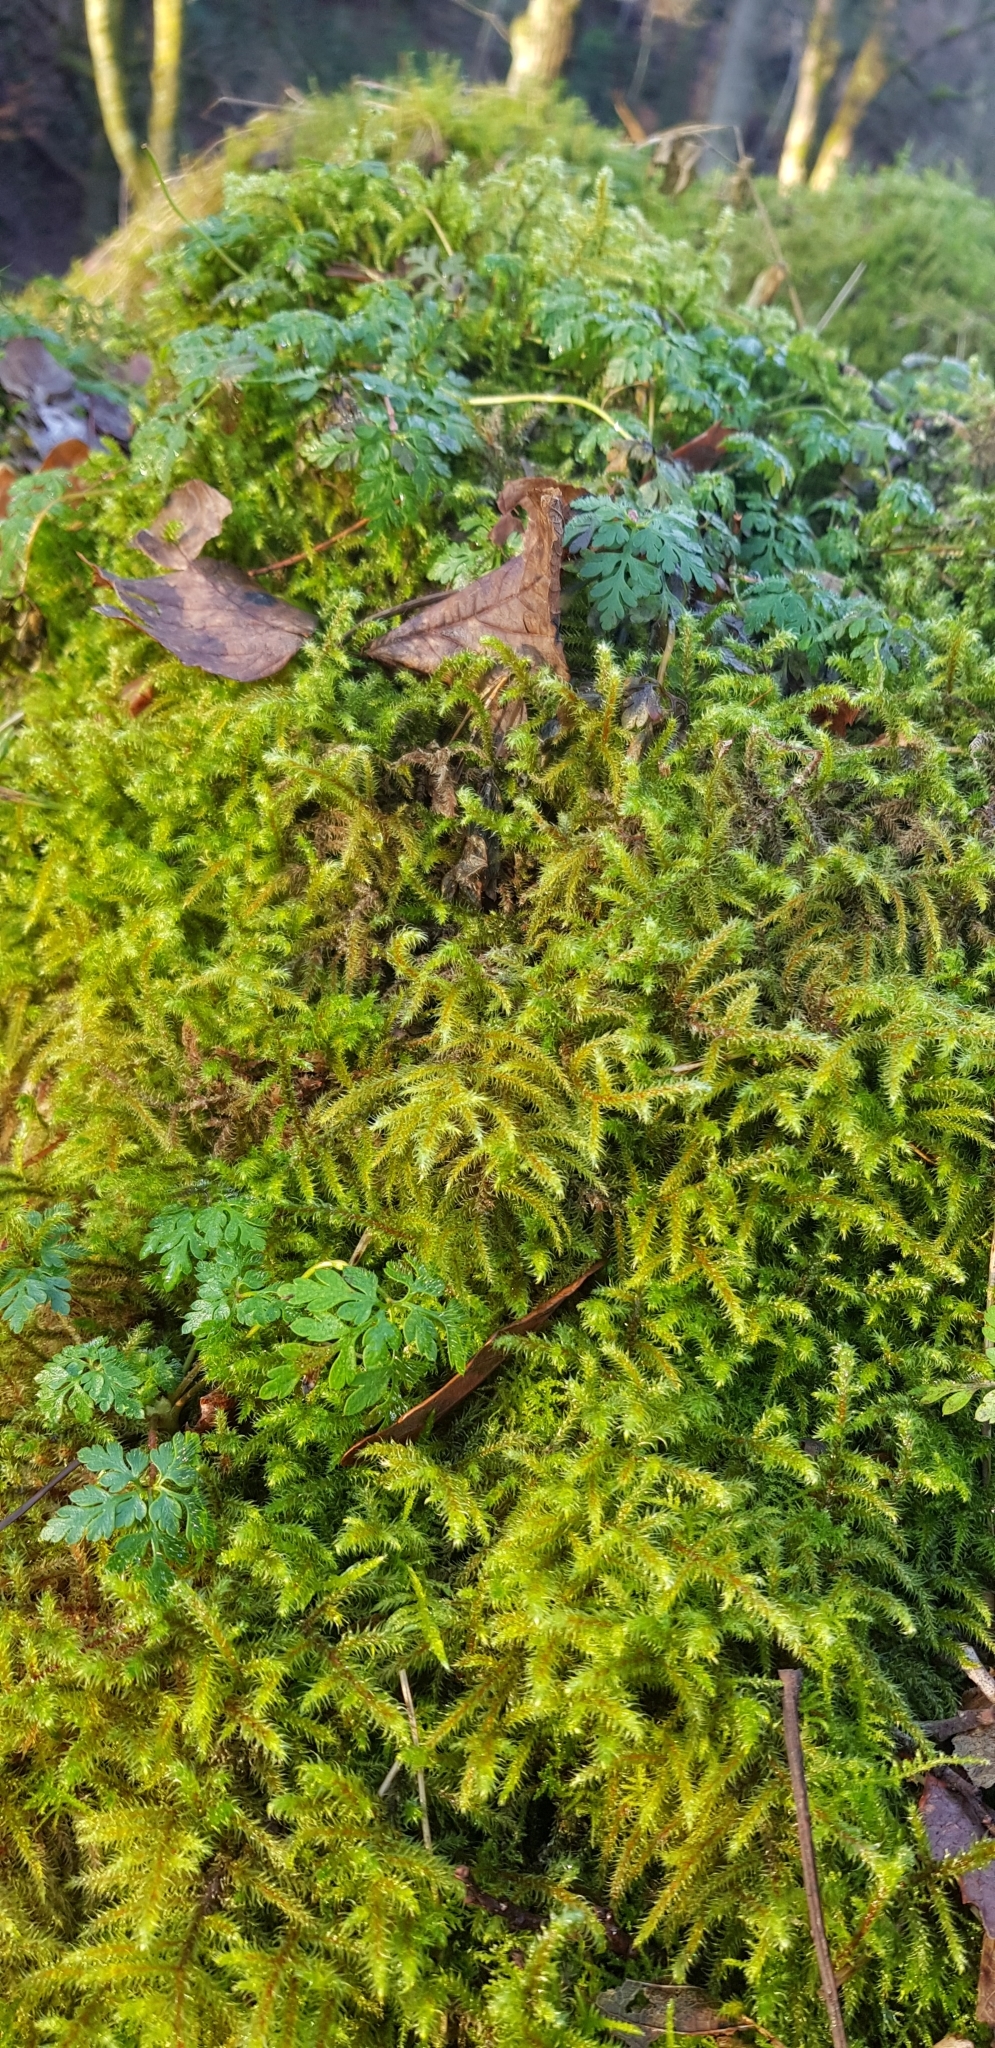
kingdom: Plantae
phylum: Bryophyta
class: Bryopsida
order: Hypnales
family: Hylocomiaceae
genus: Rhytidiadelphus
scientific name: Rhytidiadelphus loreus
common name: Lanky moss
